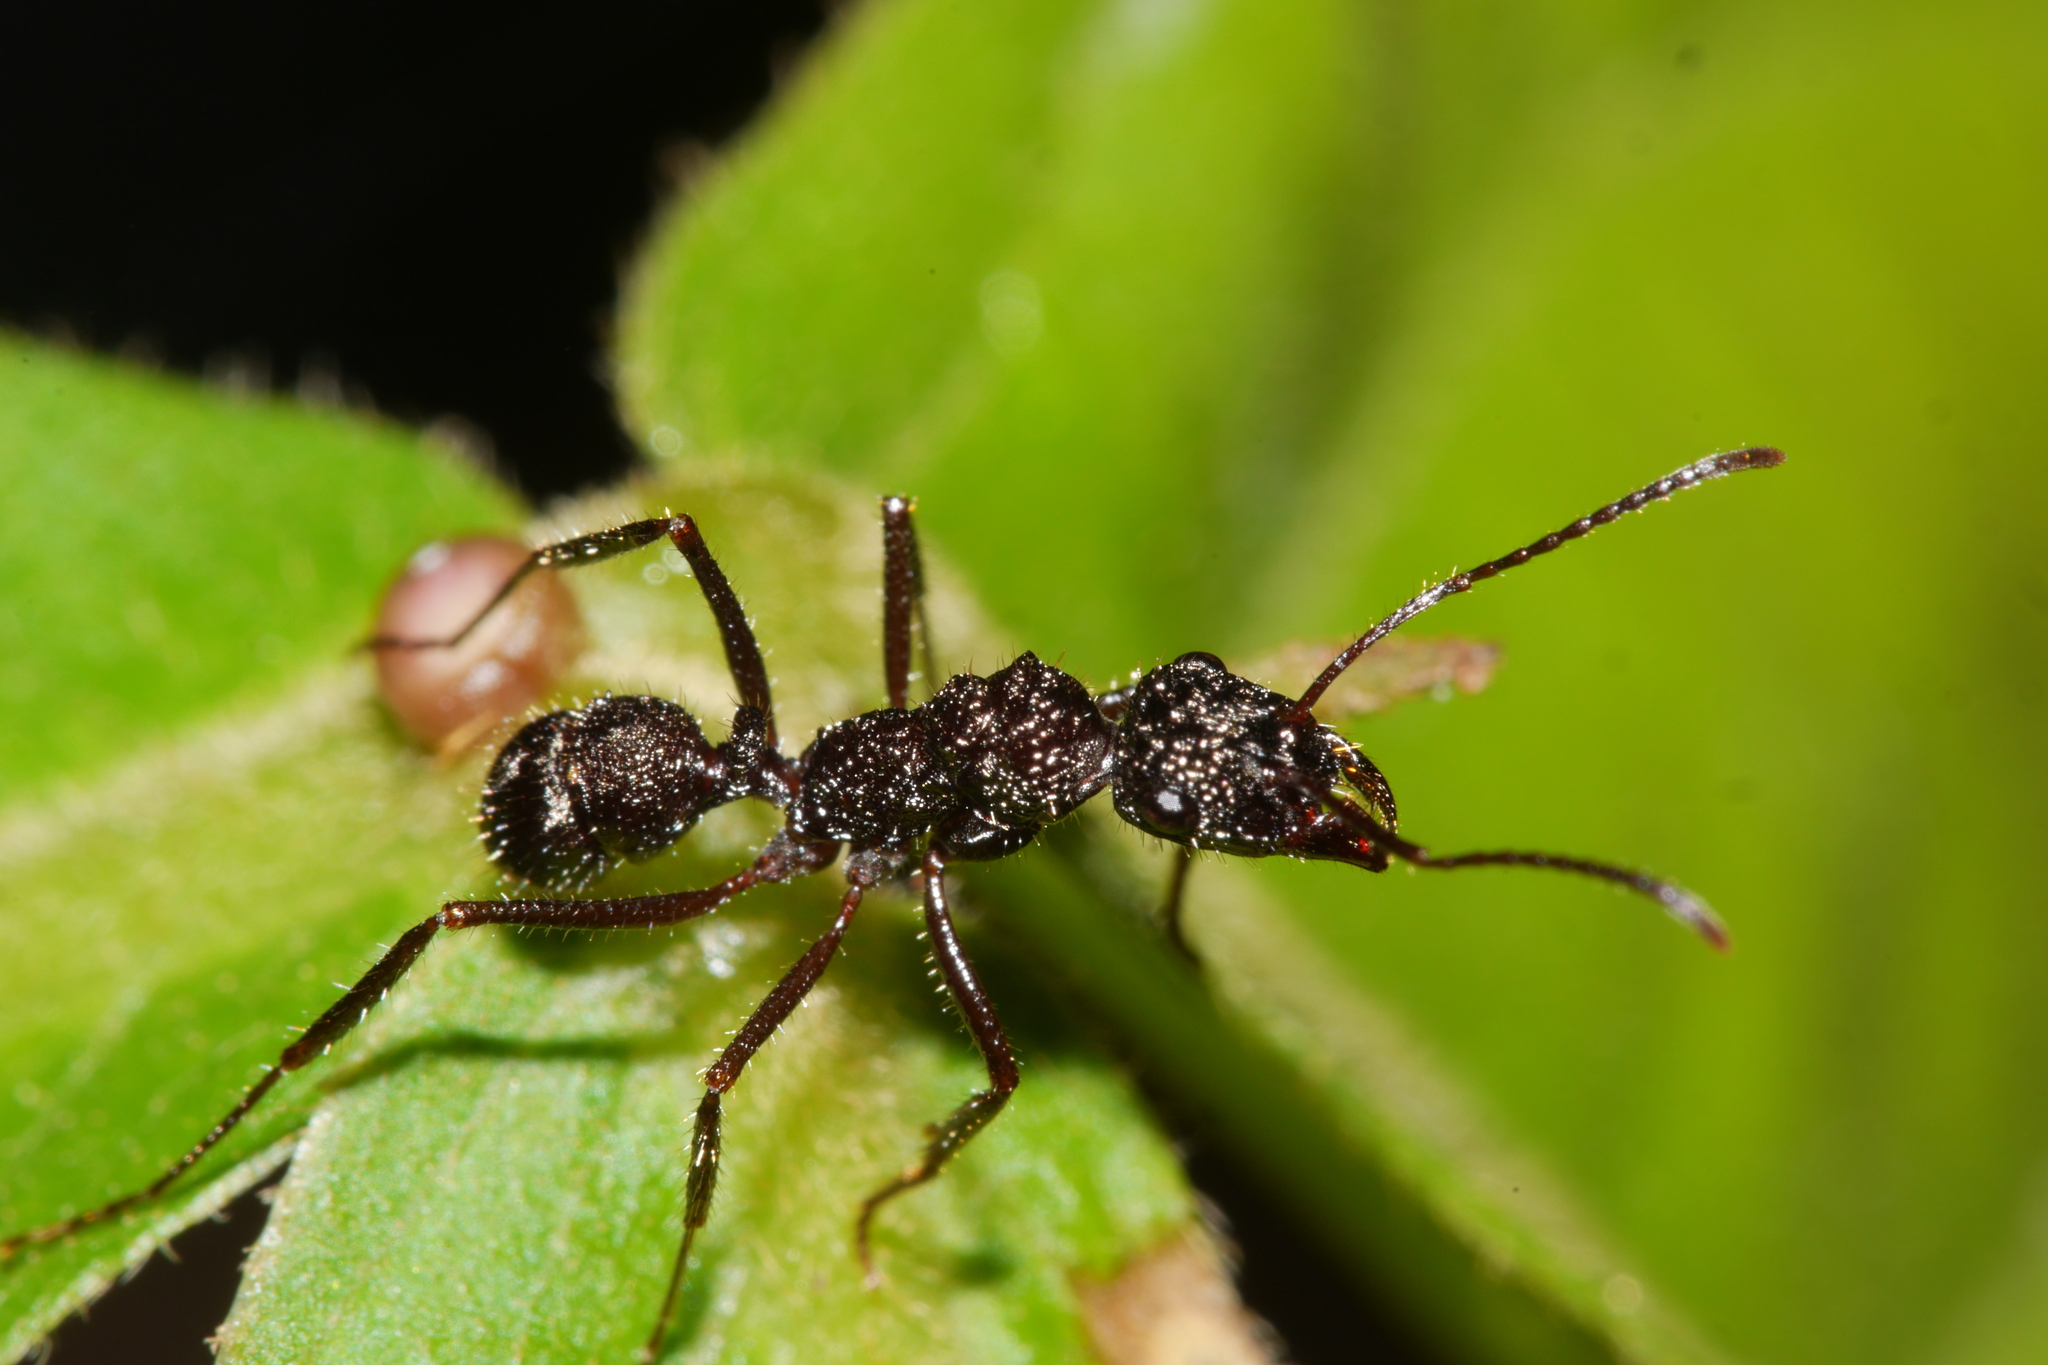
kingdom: Animalia
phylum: Arthropoda
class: Insecta
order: Hymenoptera
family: Formicidae
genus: Ectatomma
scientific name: Ectatomma ruidum
